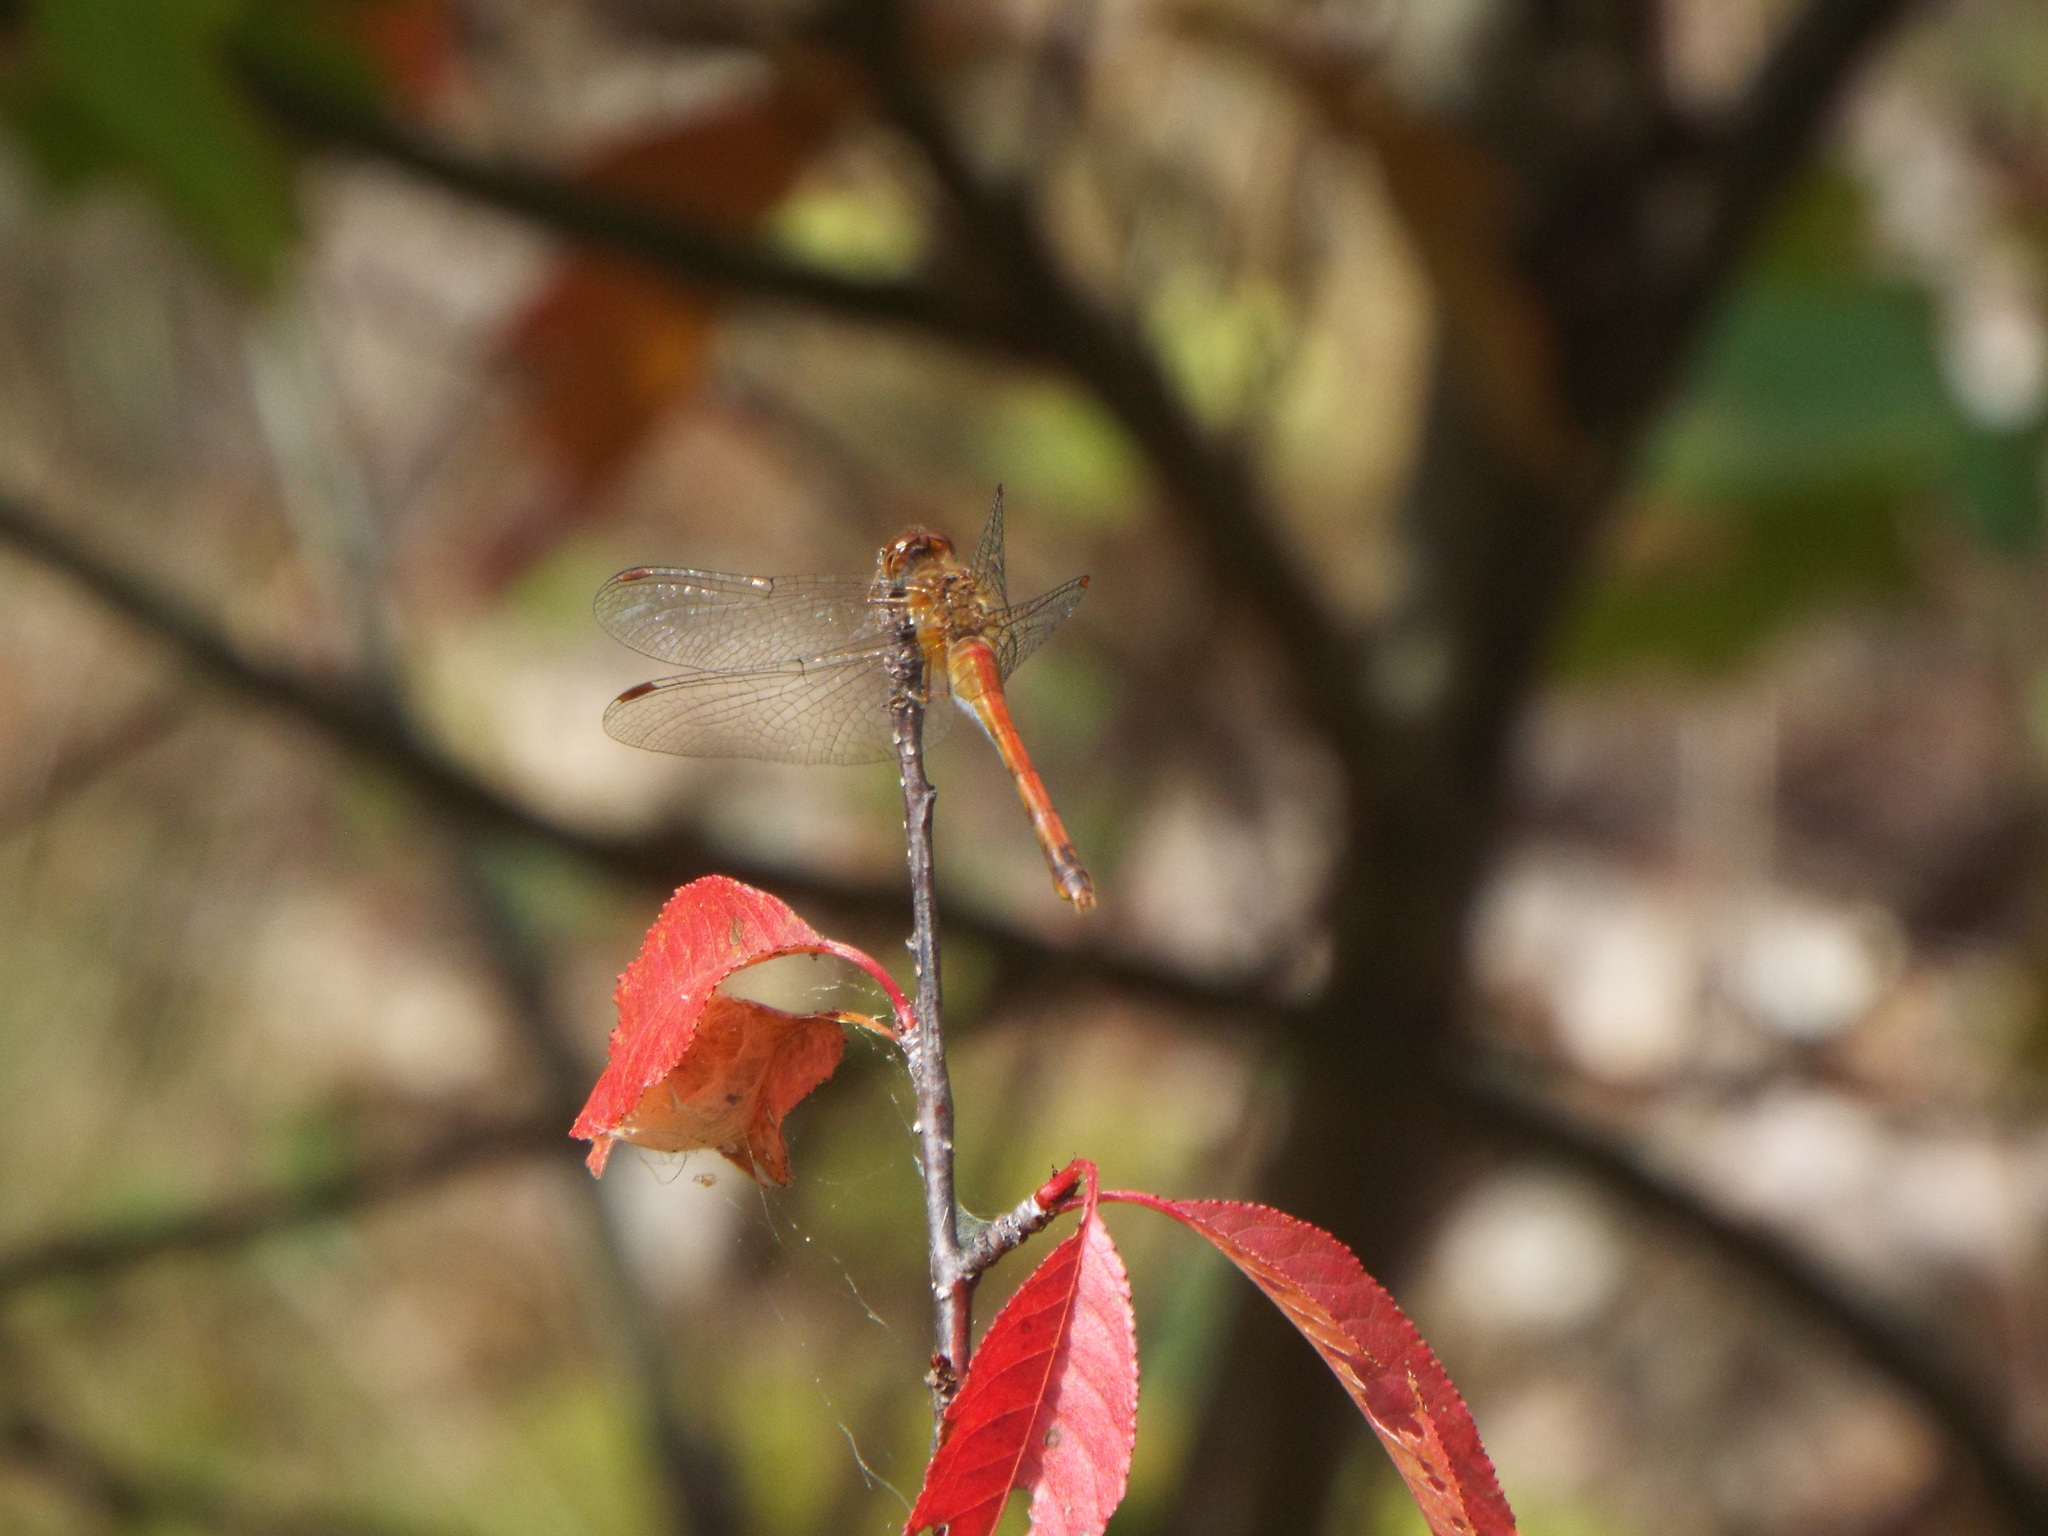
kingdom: Animalia
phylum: Arthropoda
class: Insecta
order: Odonata
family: Libellulidae
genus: Sympetrum
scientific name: Sympetrum vicinum
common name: Autumn meadowhawk
